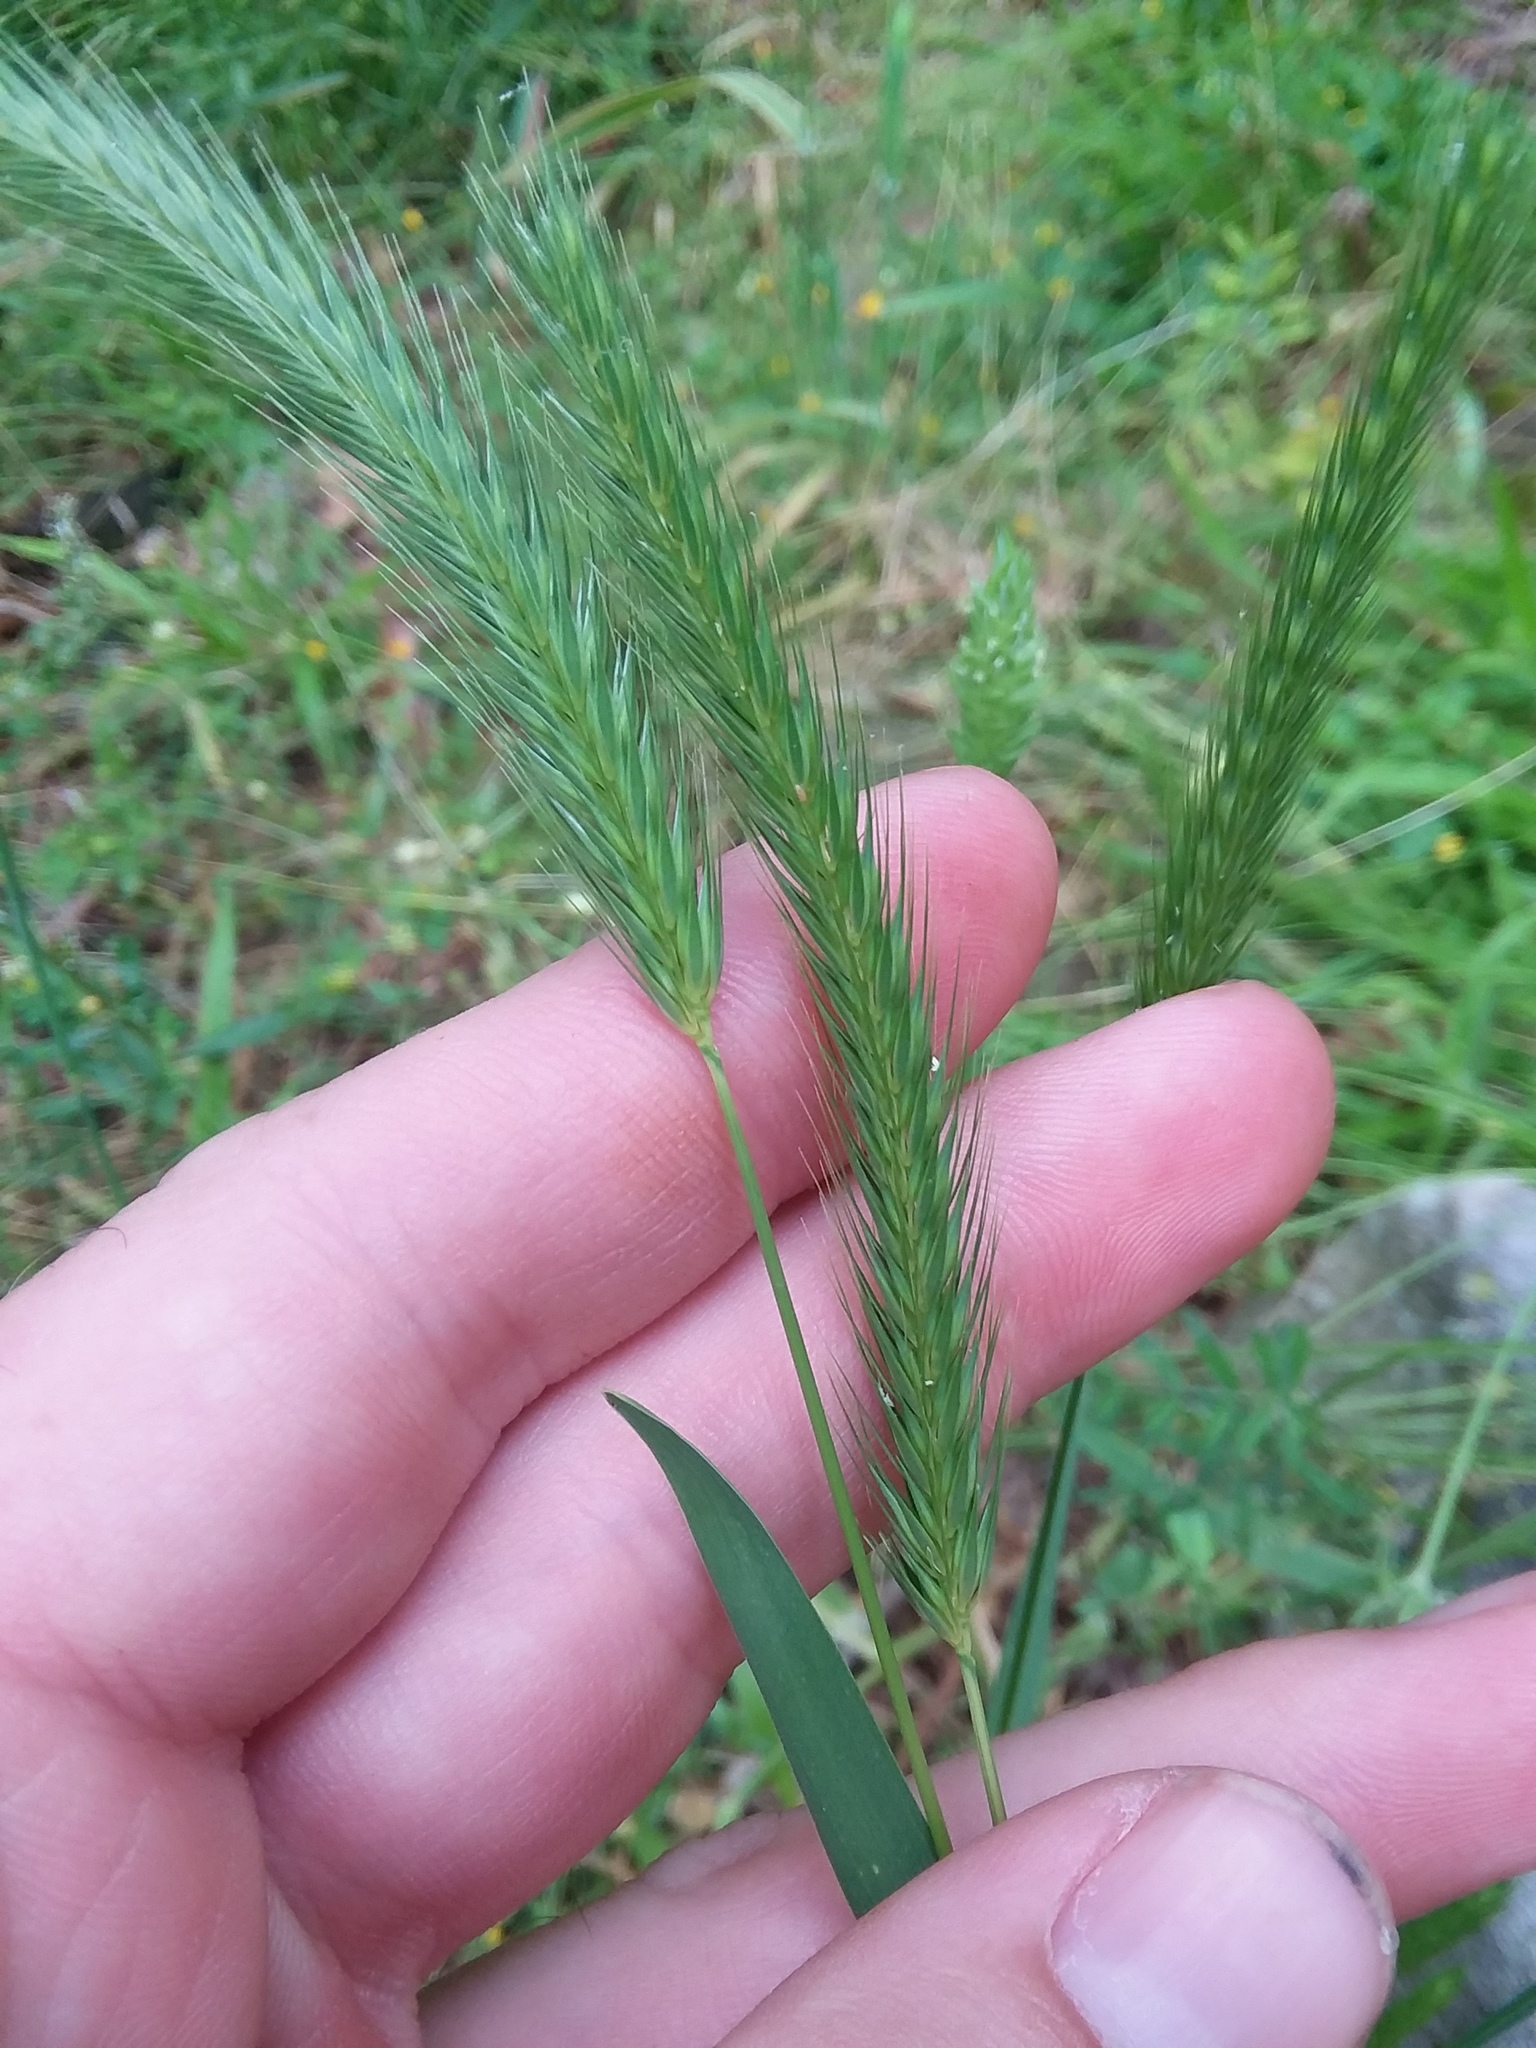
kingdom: Plantae
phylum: Tracheophyta
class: Liliopsida
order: Poales
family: Poaceae
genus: Hordeum
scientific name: Hordeum pusillum
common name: Little barley
